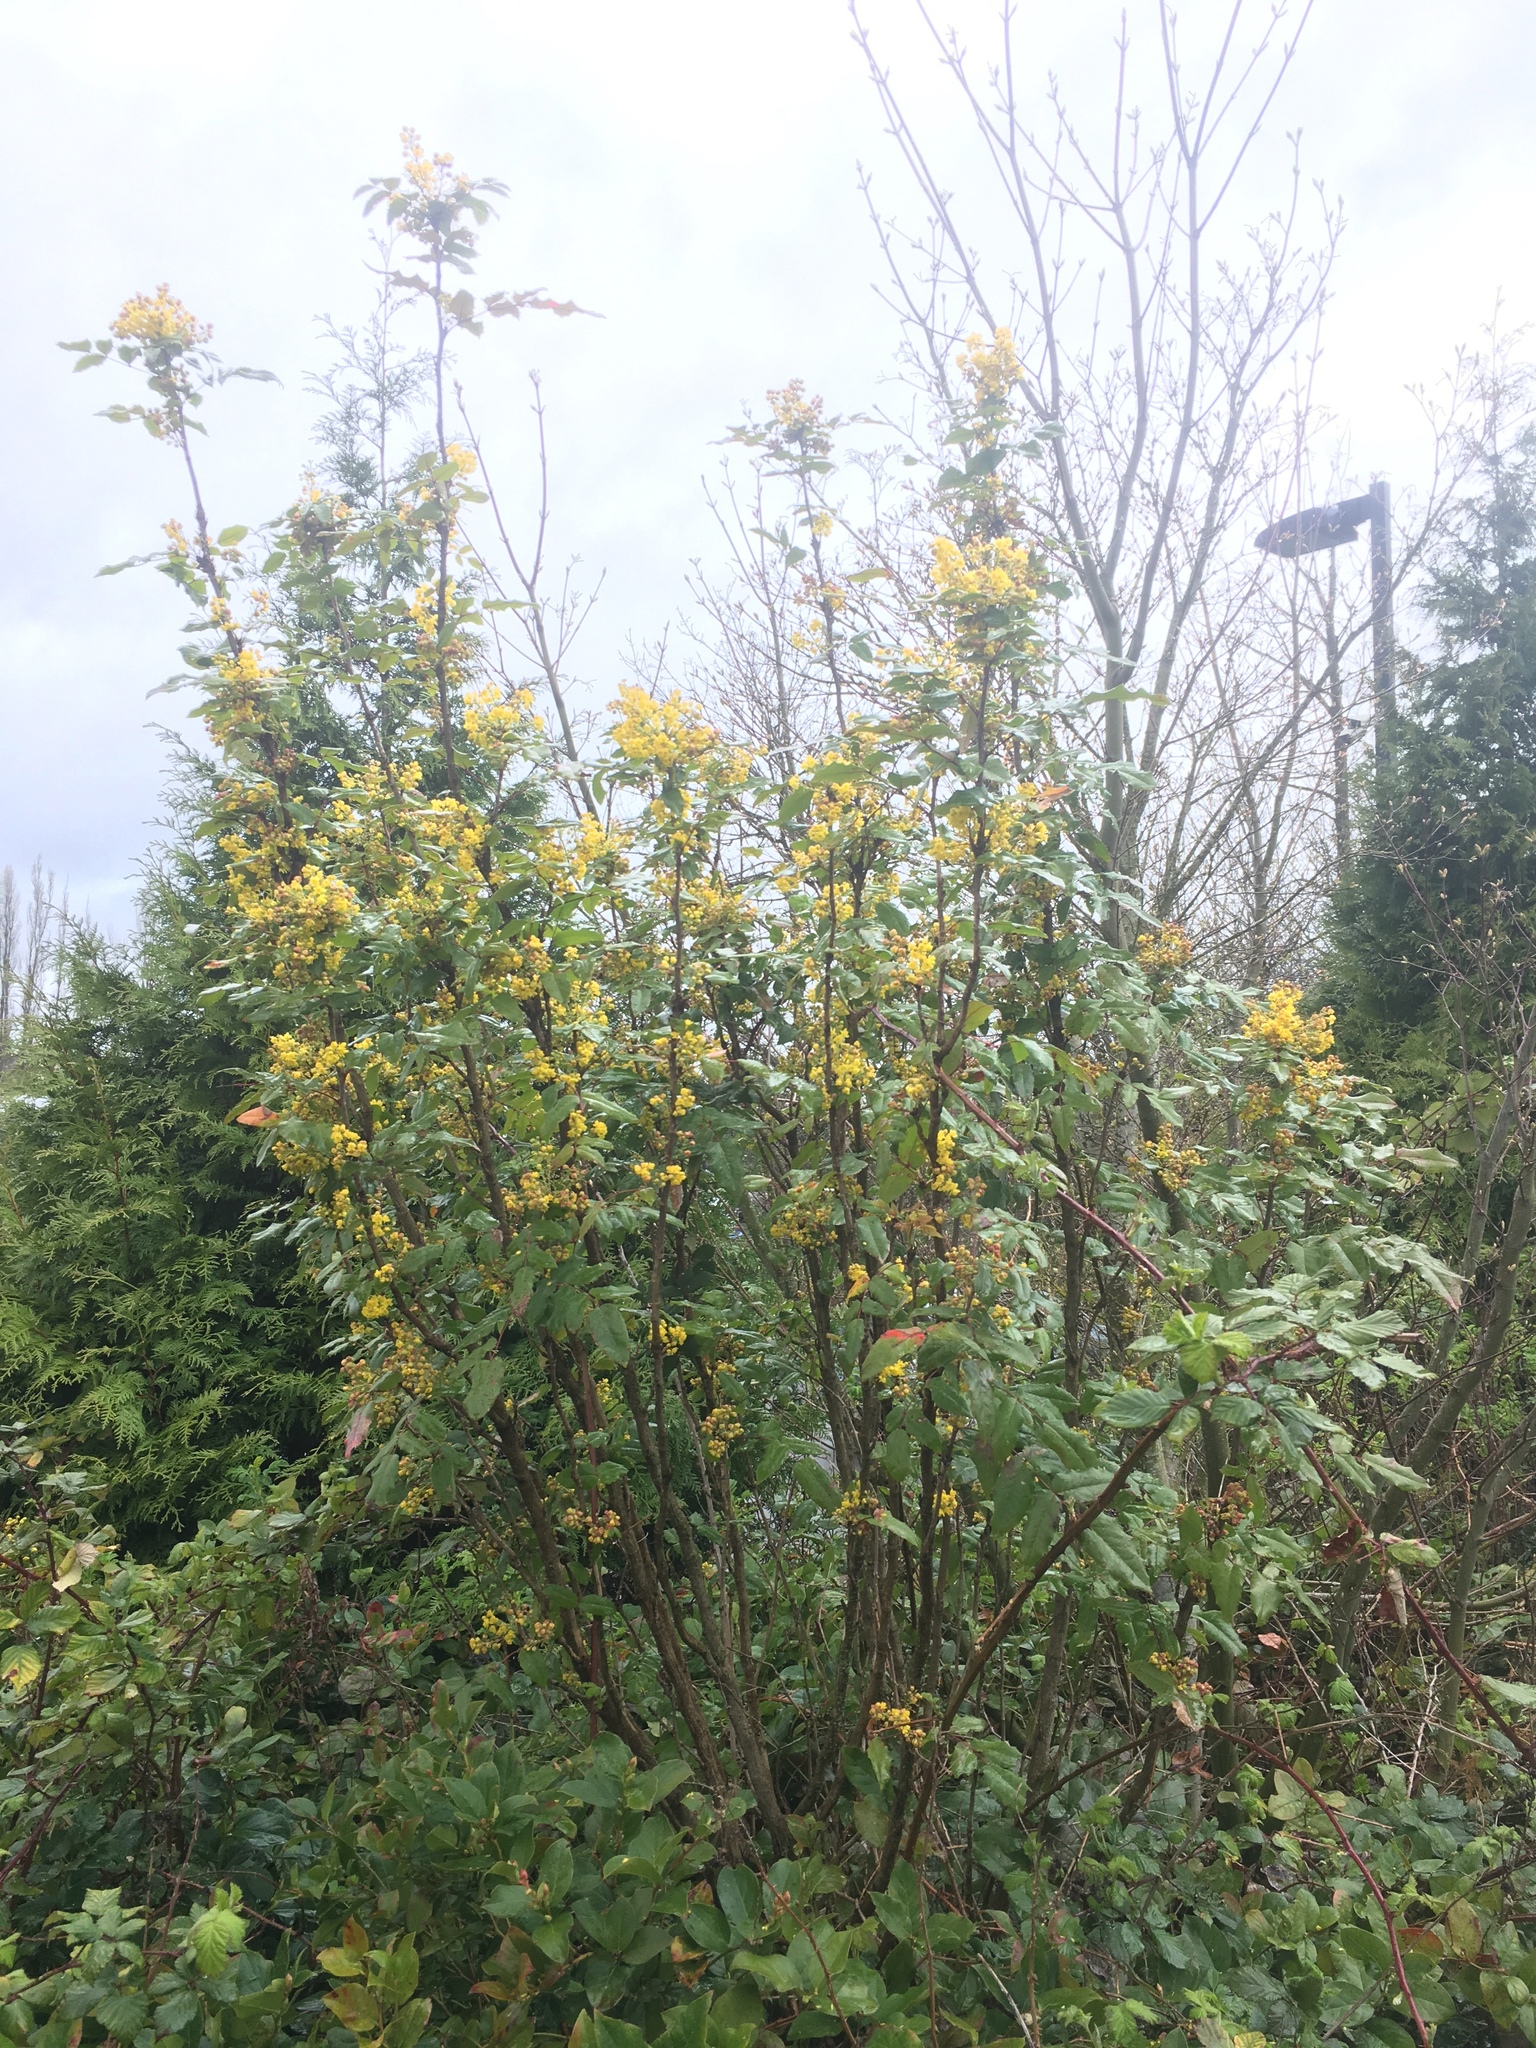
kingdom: Plantae
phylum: Tracheophyta
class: Magnoliopsida
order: Ranunculales
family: Berberidaceae
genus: Mahonia
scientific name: Mahonia aquifolium
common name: Oregon-grape
